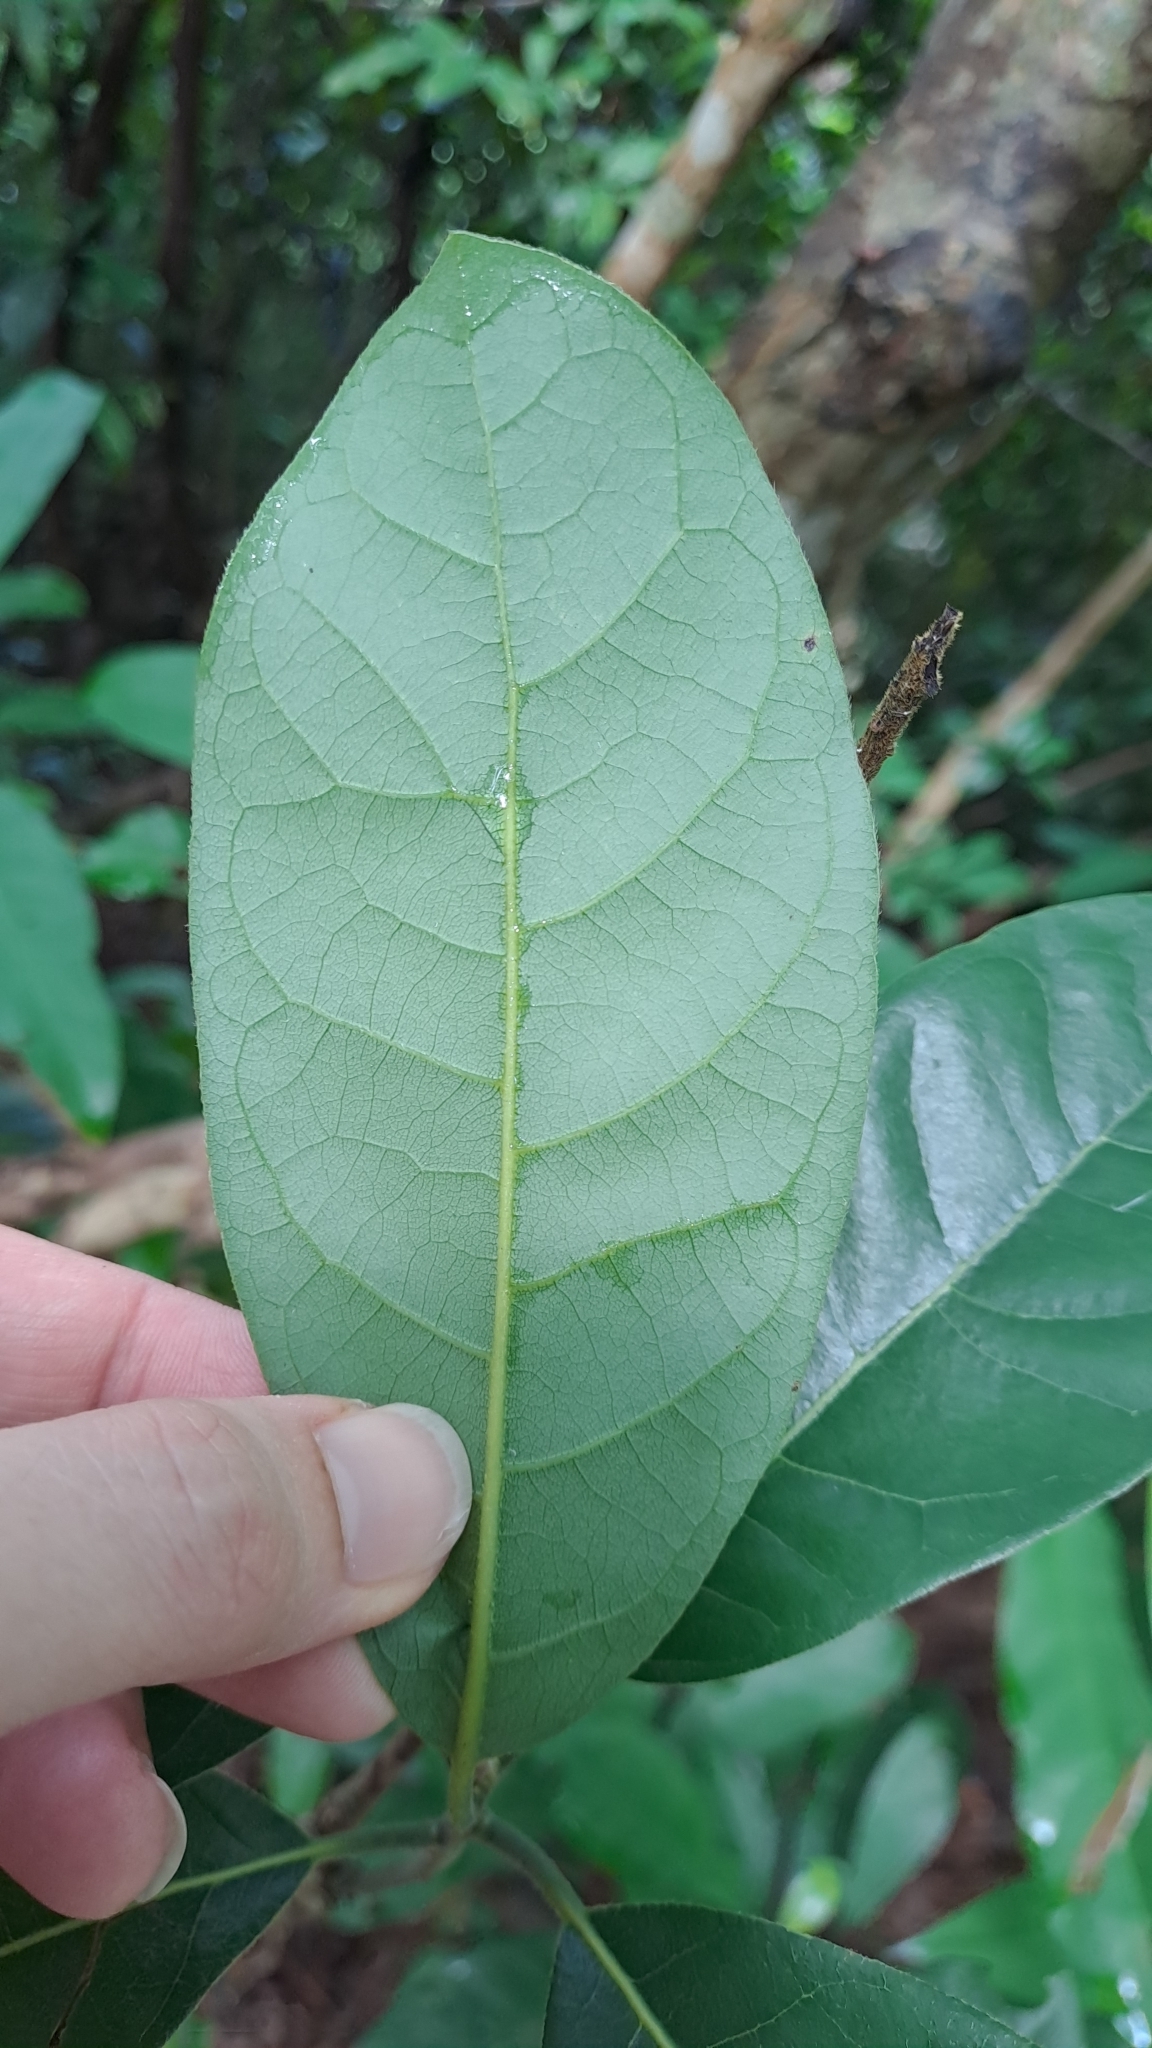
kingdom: Plantae
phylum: Tracheophyta
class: Magnoliopsida
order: Laurales
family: Lauraceae
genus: Litsea
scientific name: Litsea glutinosa
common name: Indian-laurel
